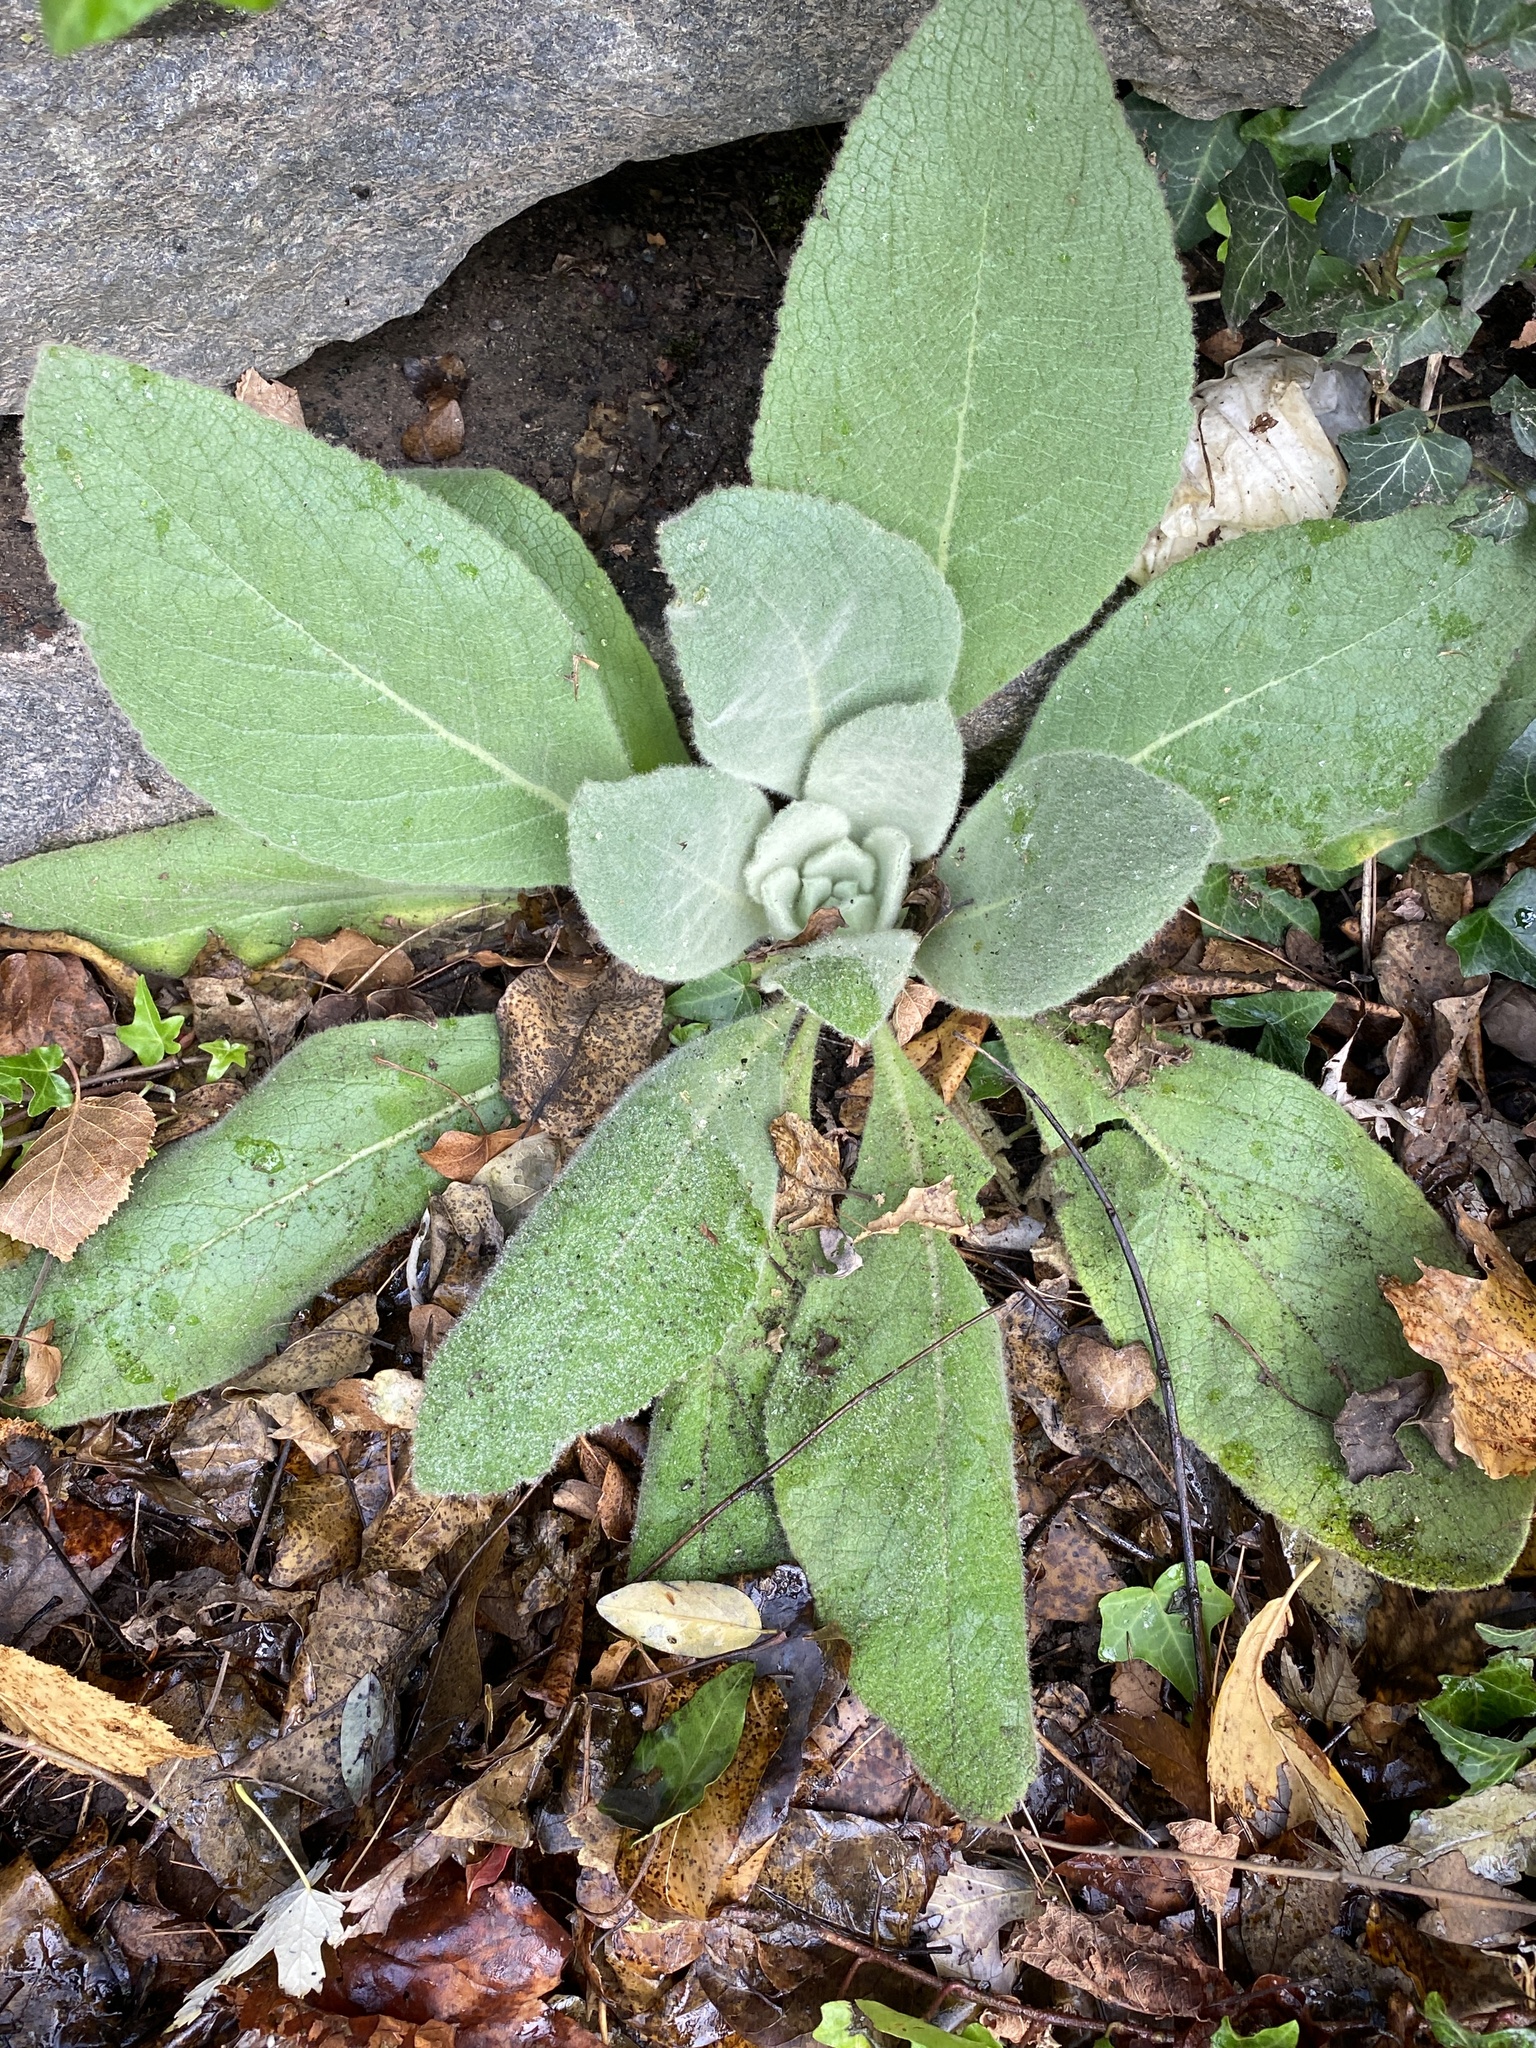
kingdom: Plantae
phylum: Tracheophyta
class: Magnoliopsida
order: Lamiales
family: Scrophulariaceae
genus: Verbascum
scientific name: Verbascum thapsus
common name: Common mullein
